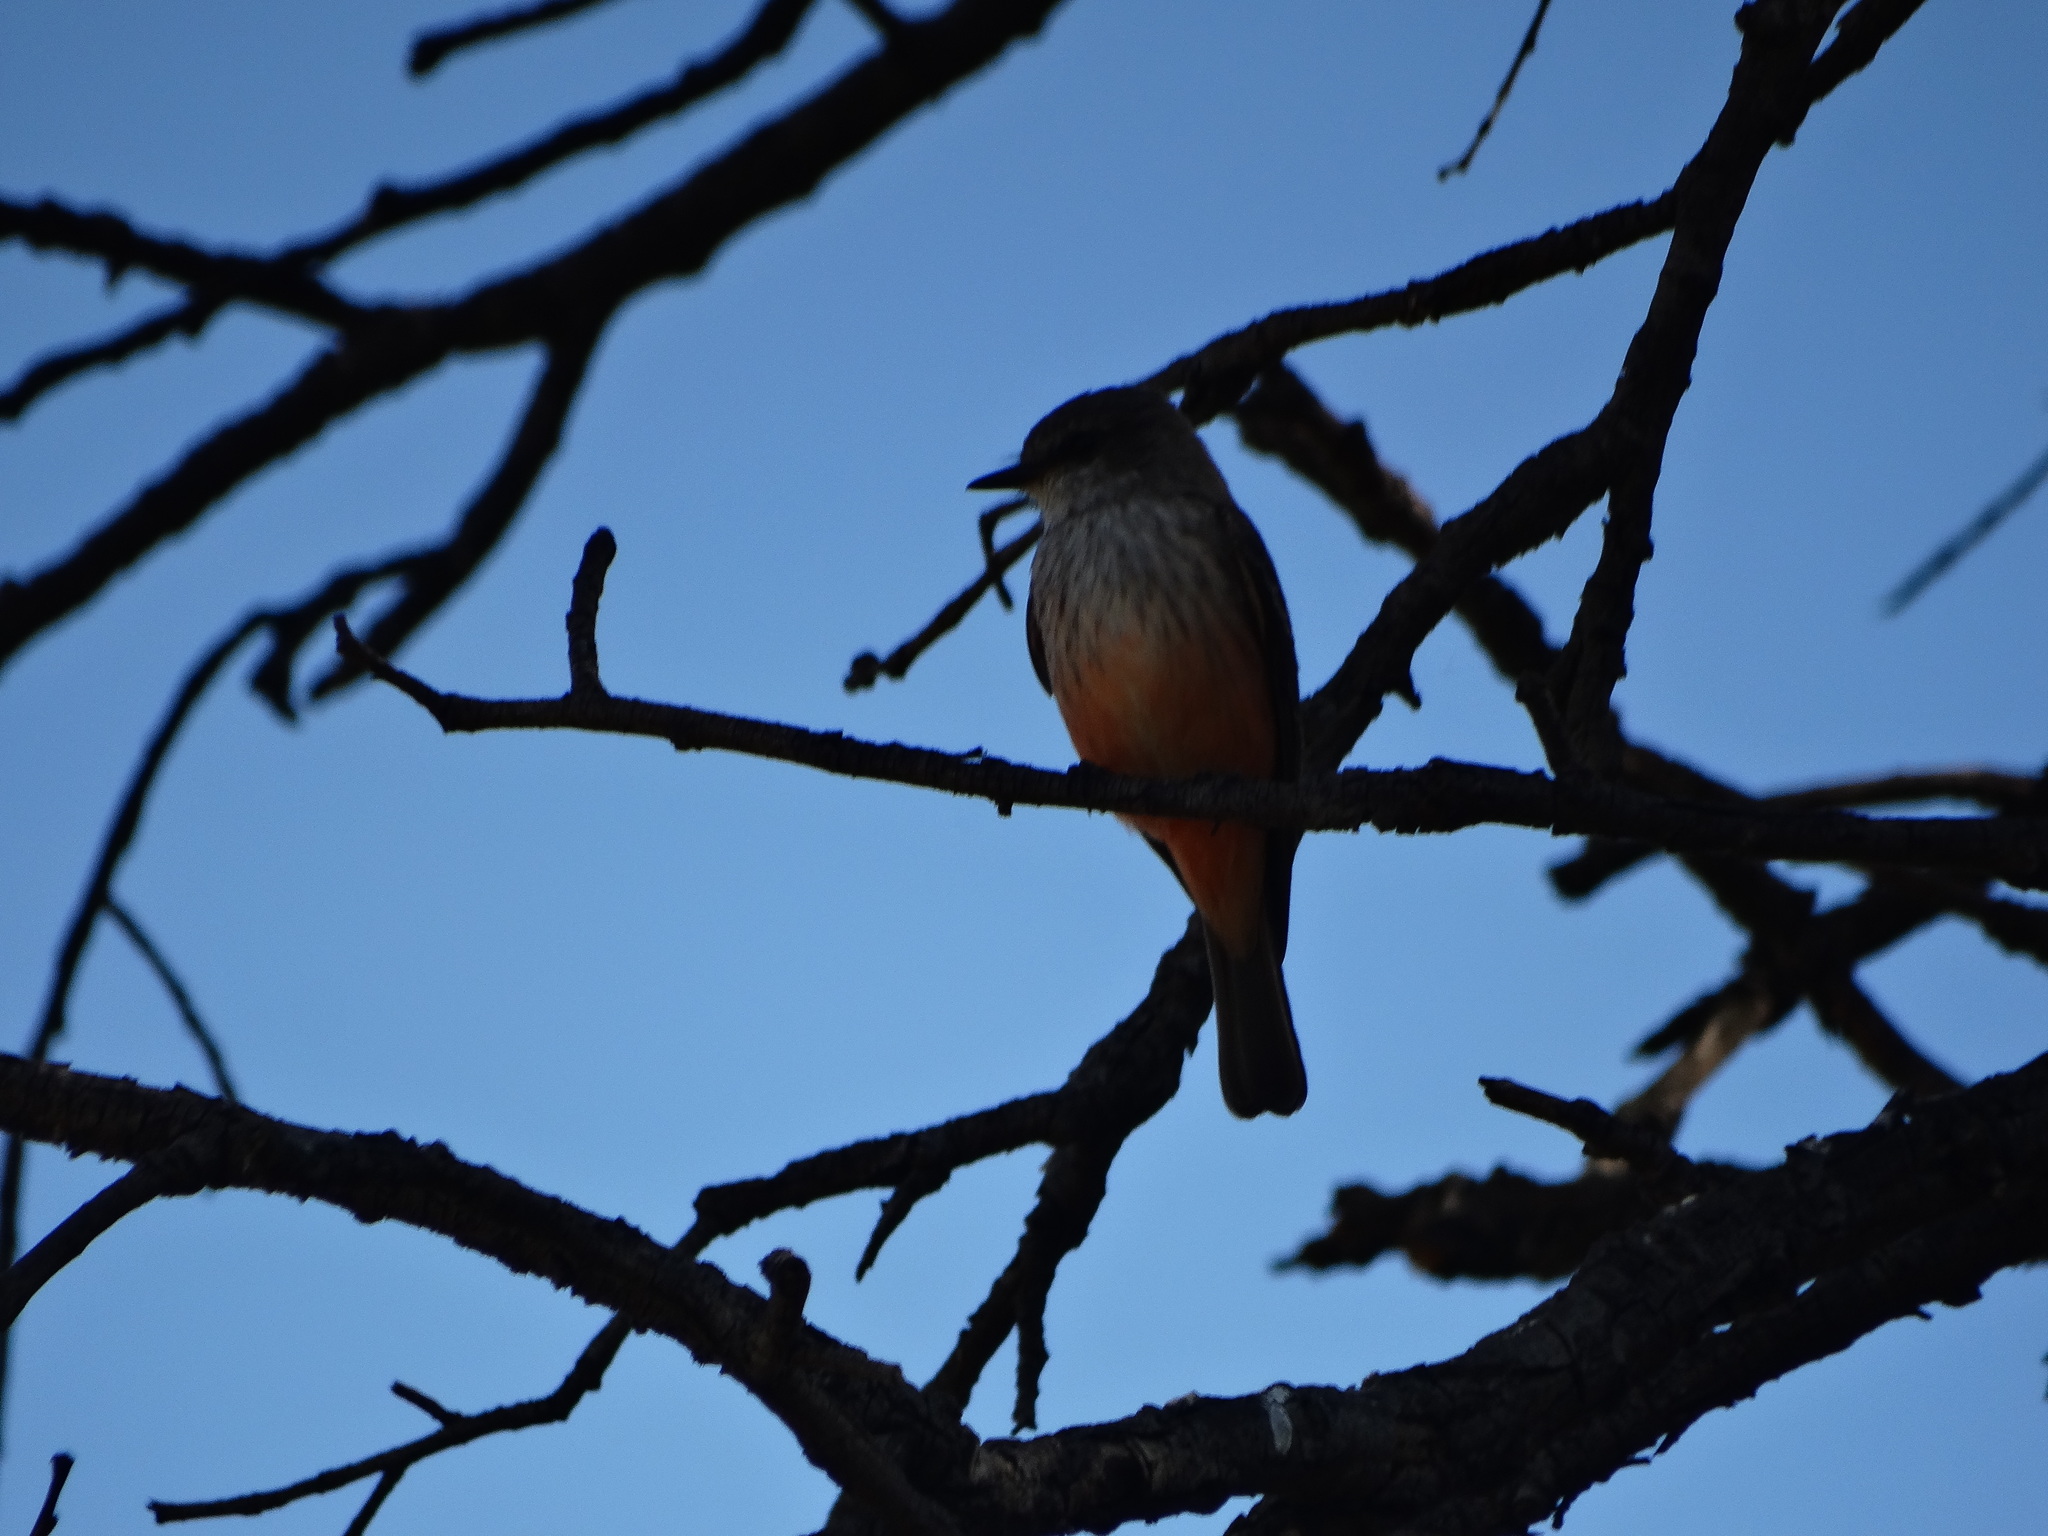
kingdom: Animalia
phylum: Chordata
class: Aves
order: Passeriformes
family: Tyrannidae
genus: Pyrocephalus
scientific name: Pyrocephalus rubinus
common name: Vermilion flycatcher
